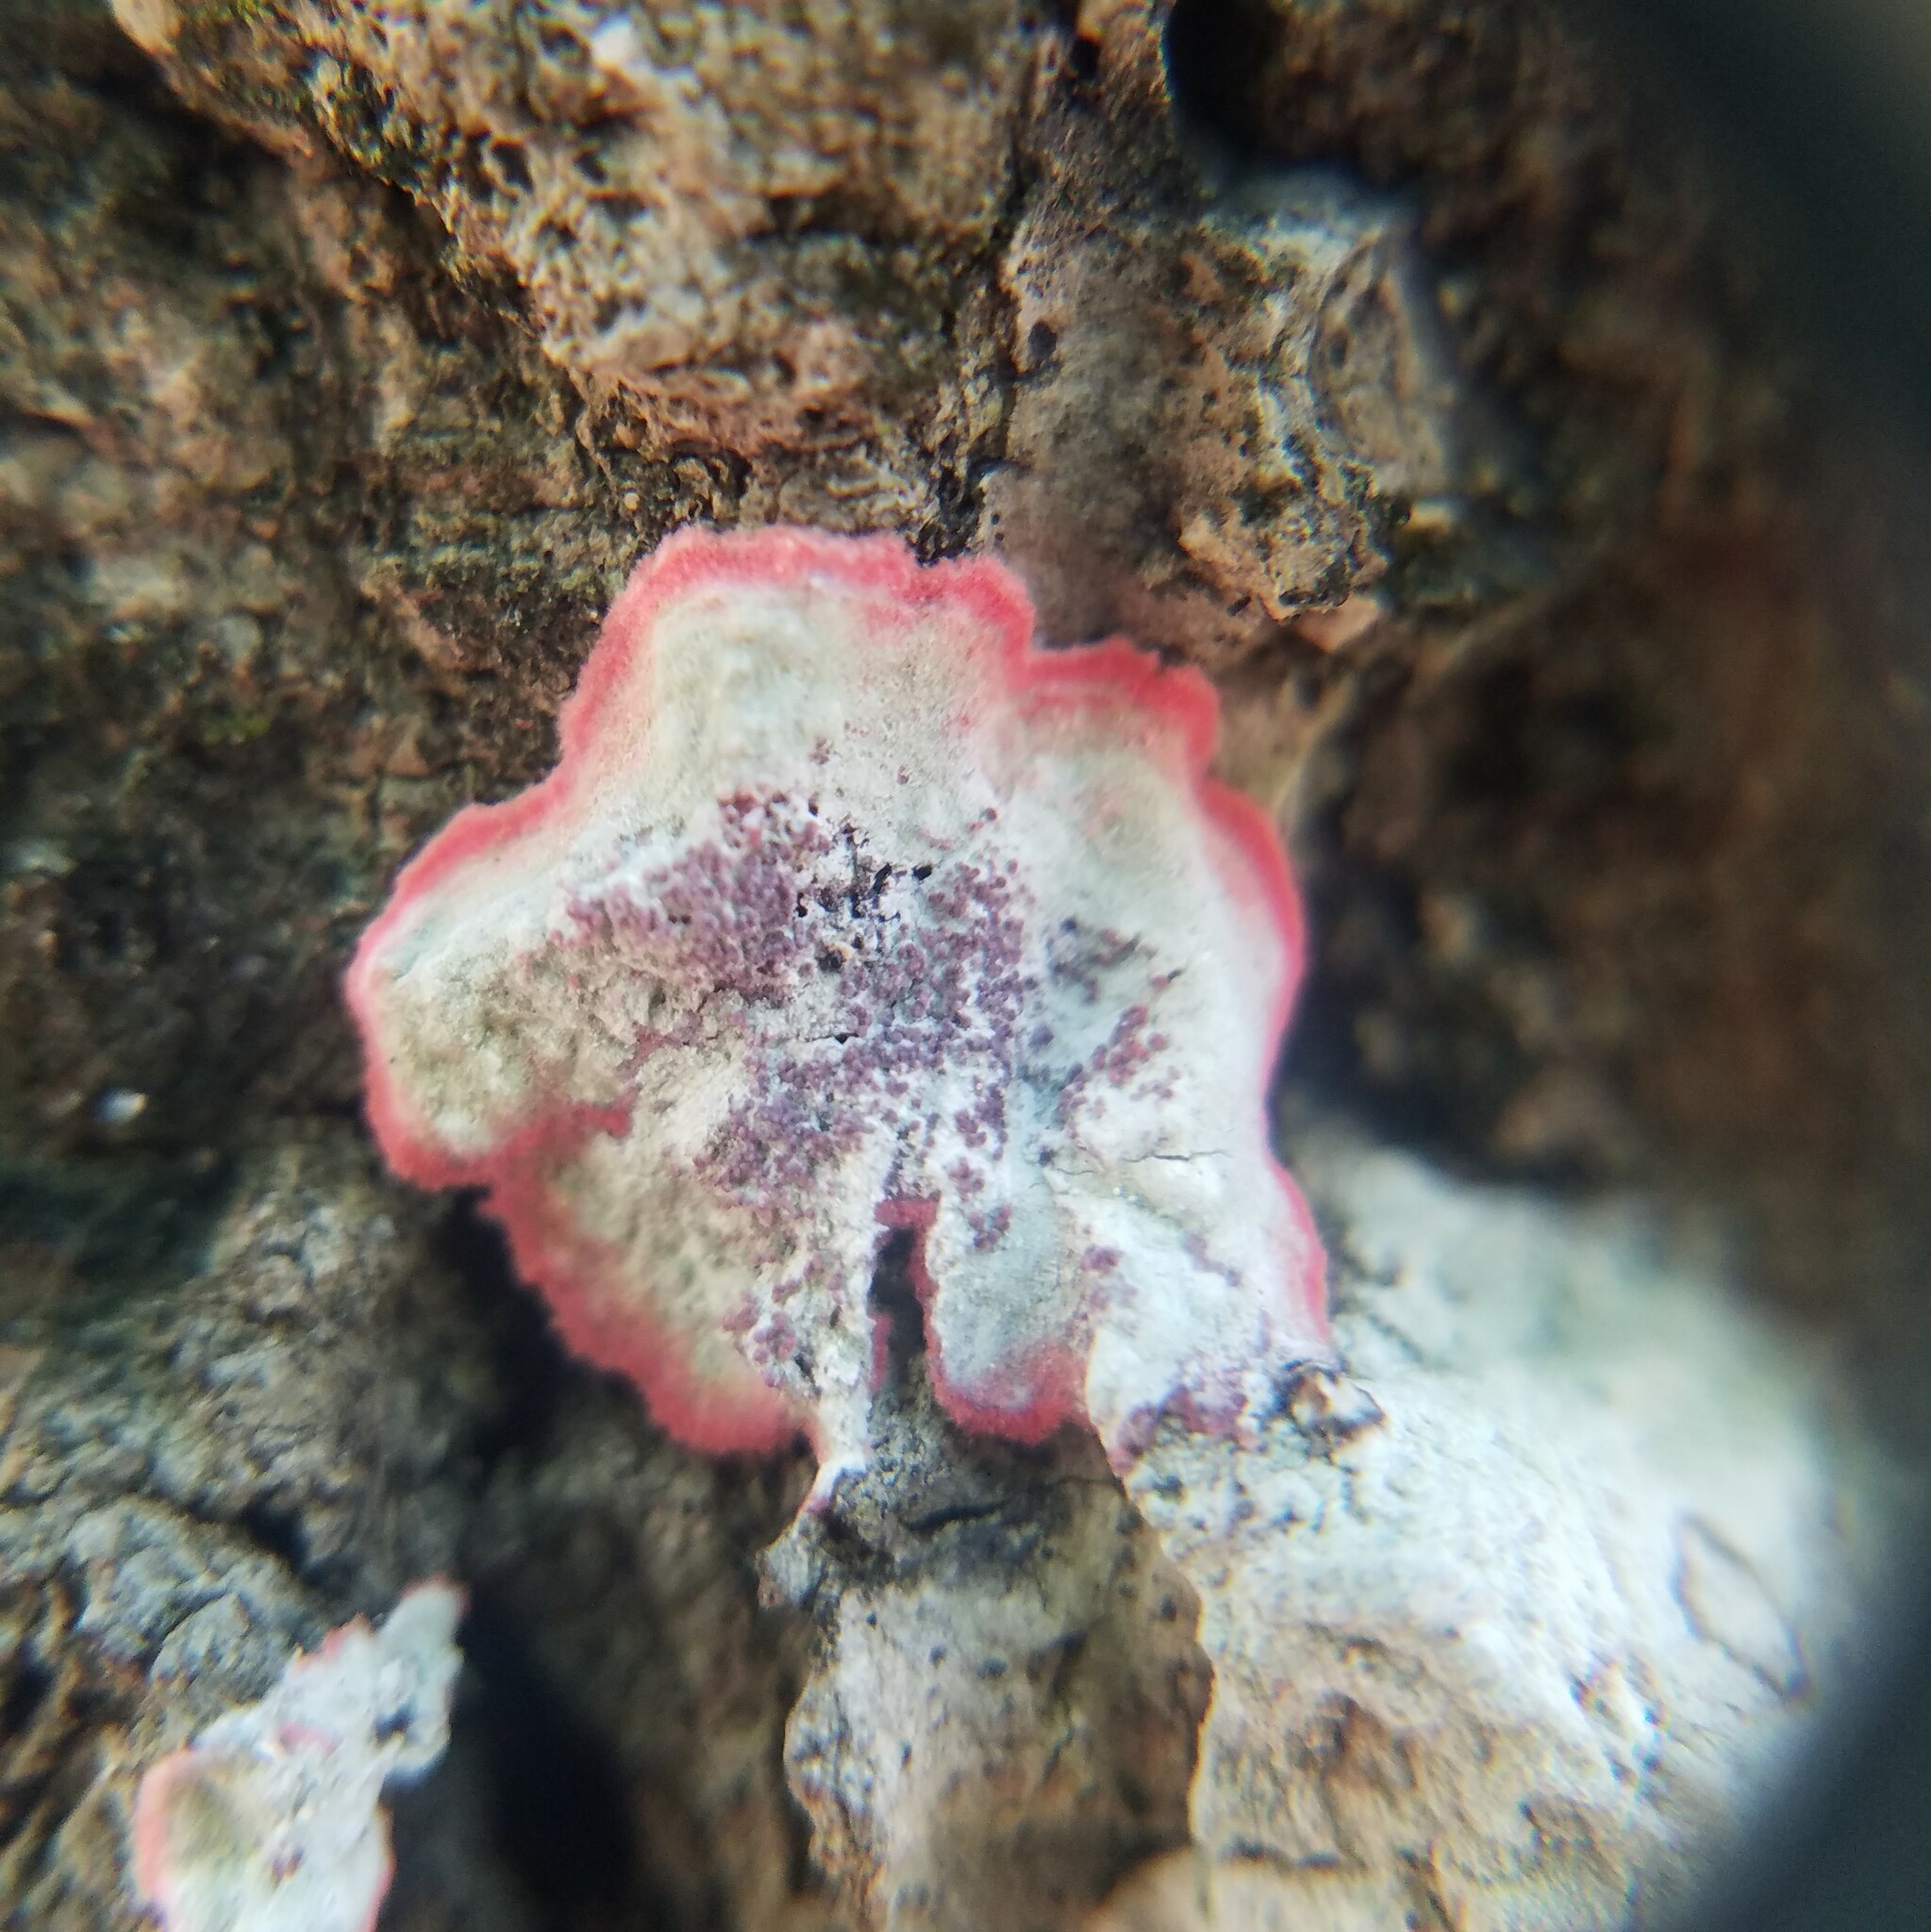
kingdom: Fungi
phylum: Ascomycota
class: Arthoniomycetes
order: Arthoniales
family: Arthoniaceae
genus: Herpothallon
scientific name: Herpothallon rubrocinctum
